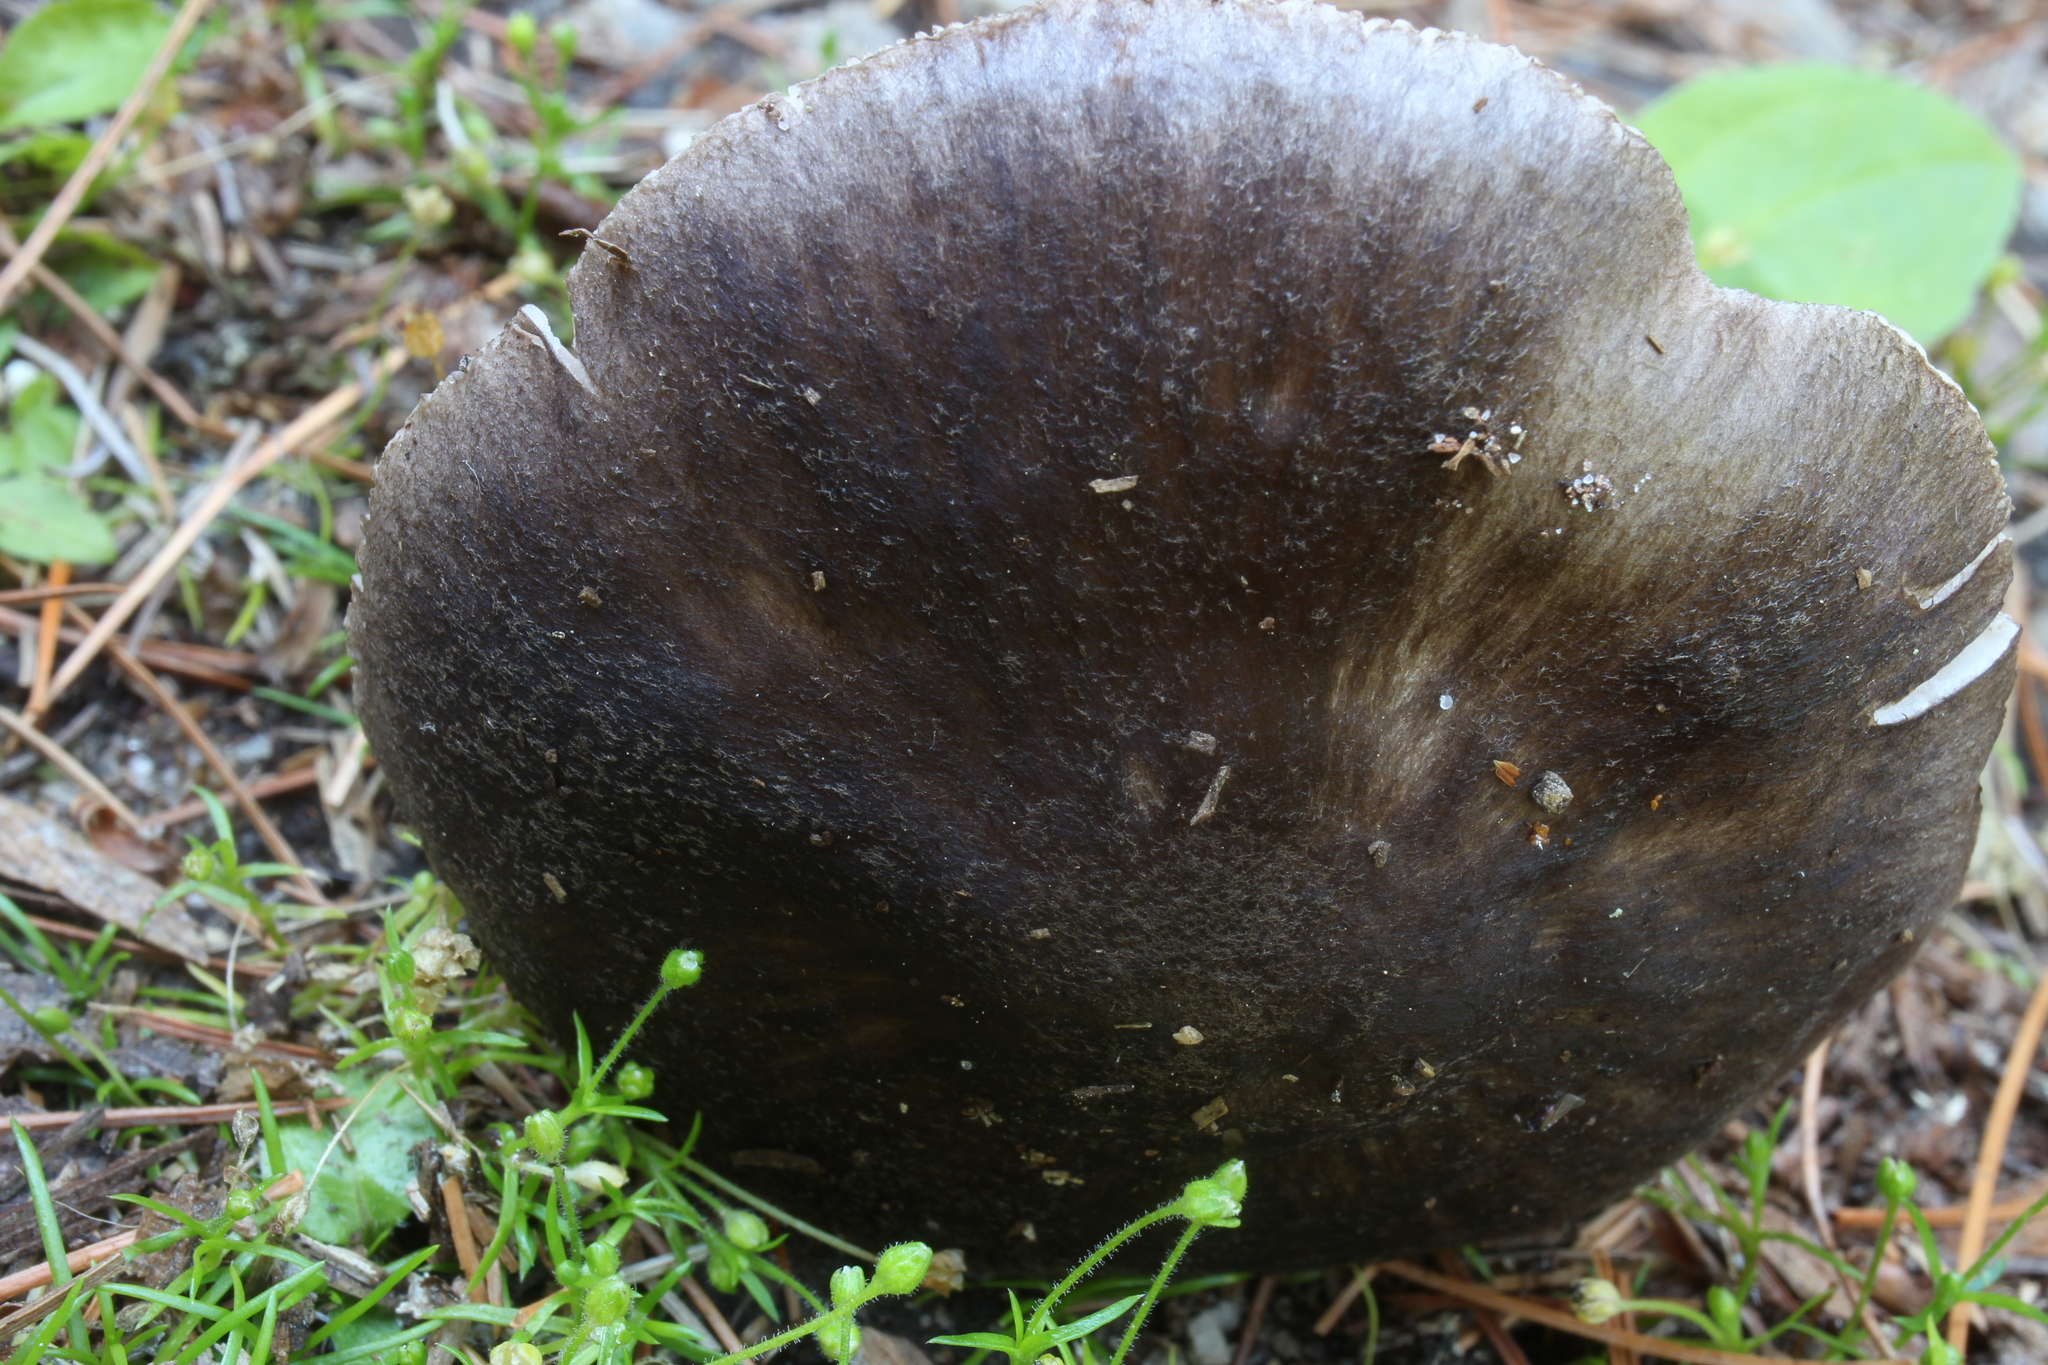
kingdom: Fungi
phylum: Basidiomycota
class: Agaricomycetes
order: Agaricales
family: Pluteaceae
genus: Pluteus
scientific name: Pluteus atromarginatus
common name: Blackedged shield
